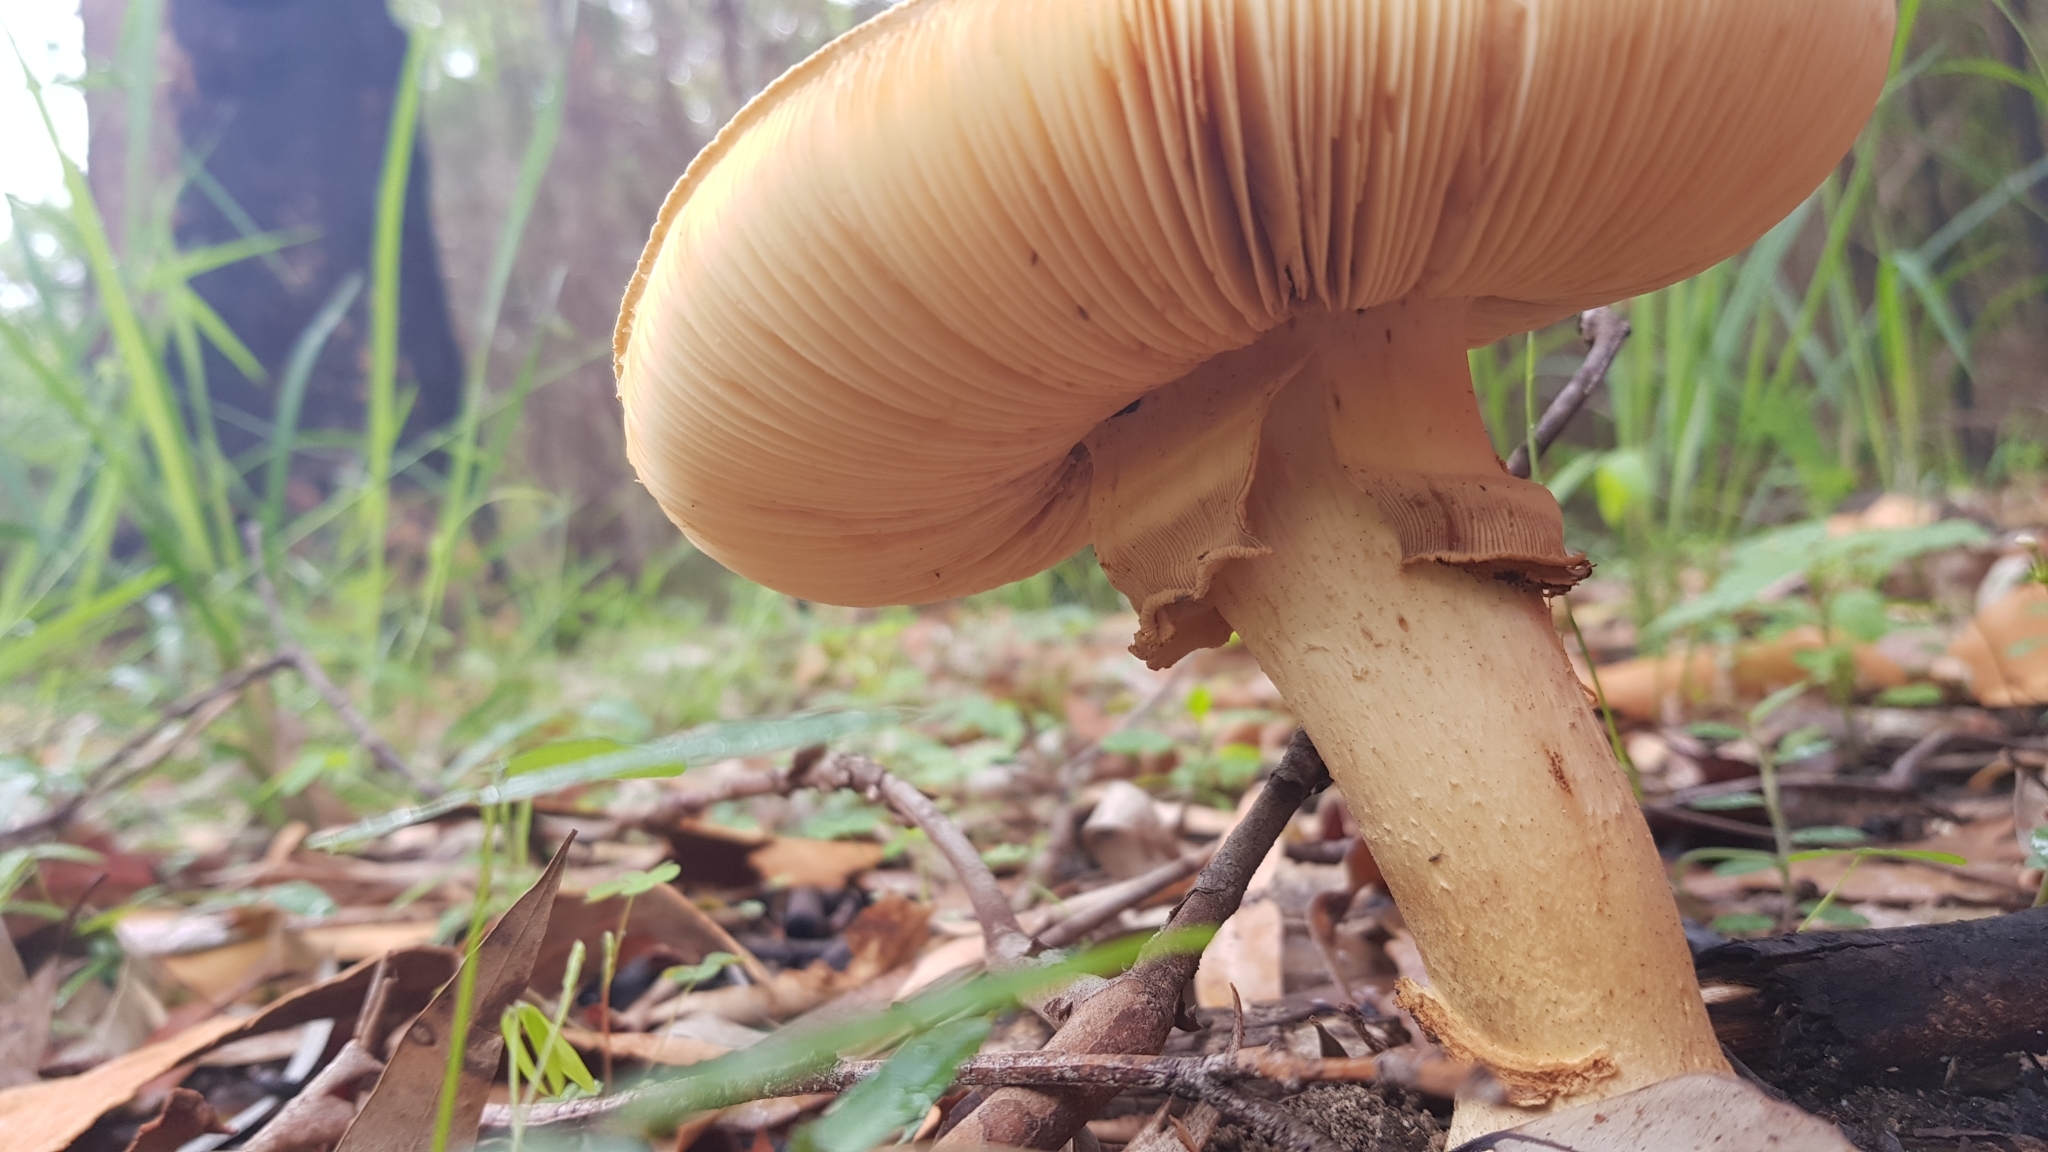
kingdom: Fungi
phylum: Basidiomycota
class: Agaricomycetes
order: Agaricales
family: Amanitaceae
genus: Amanita
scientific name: Amanita ochrophylla
